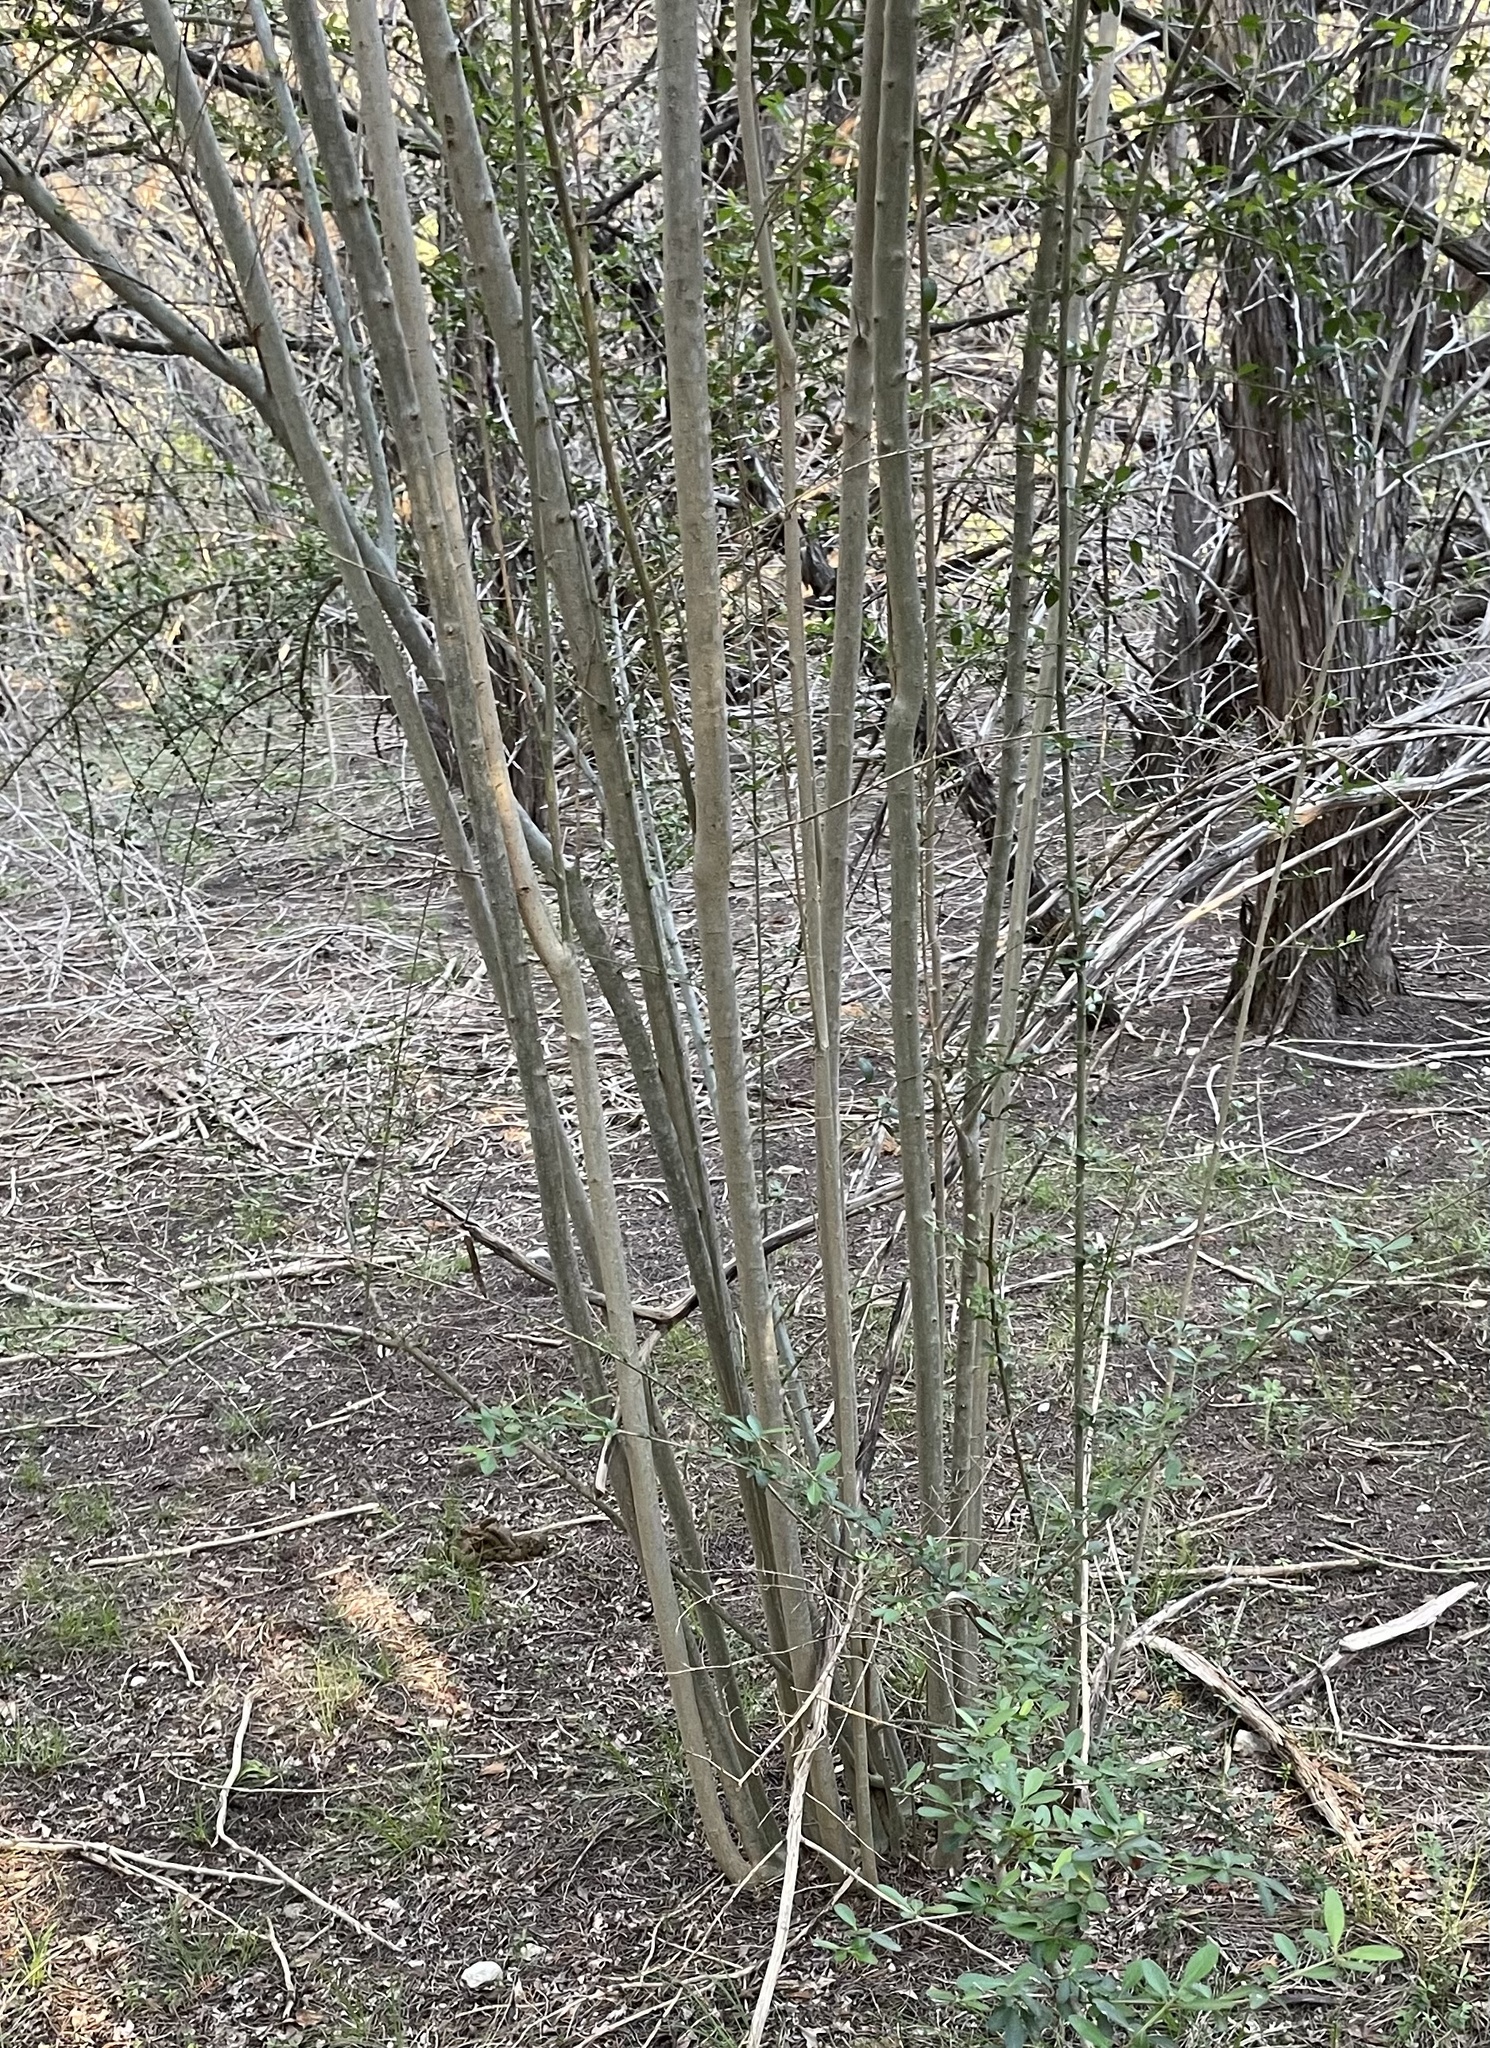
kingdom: Plantae
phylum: Tracheophyta
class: Magnoliopsida
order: Lamiales
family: Oleaceae
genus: Ligustrum
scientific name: Ligustrum quihoui
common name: Waxyleaf privet
